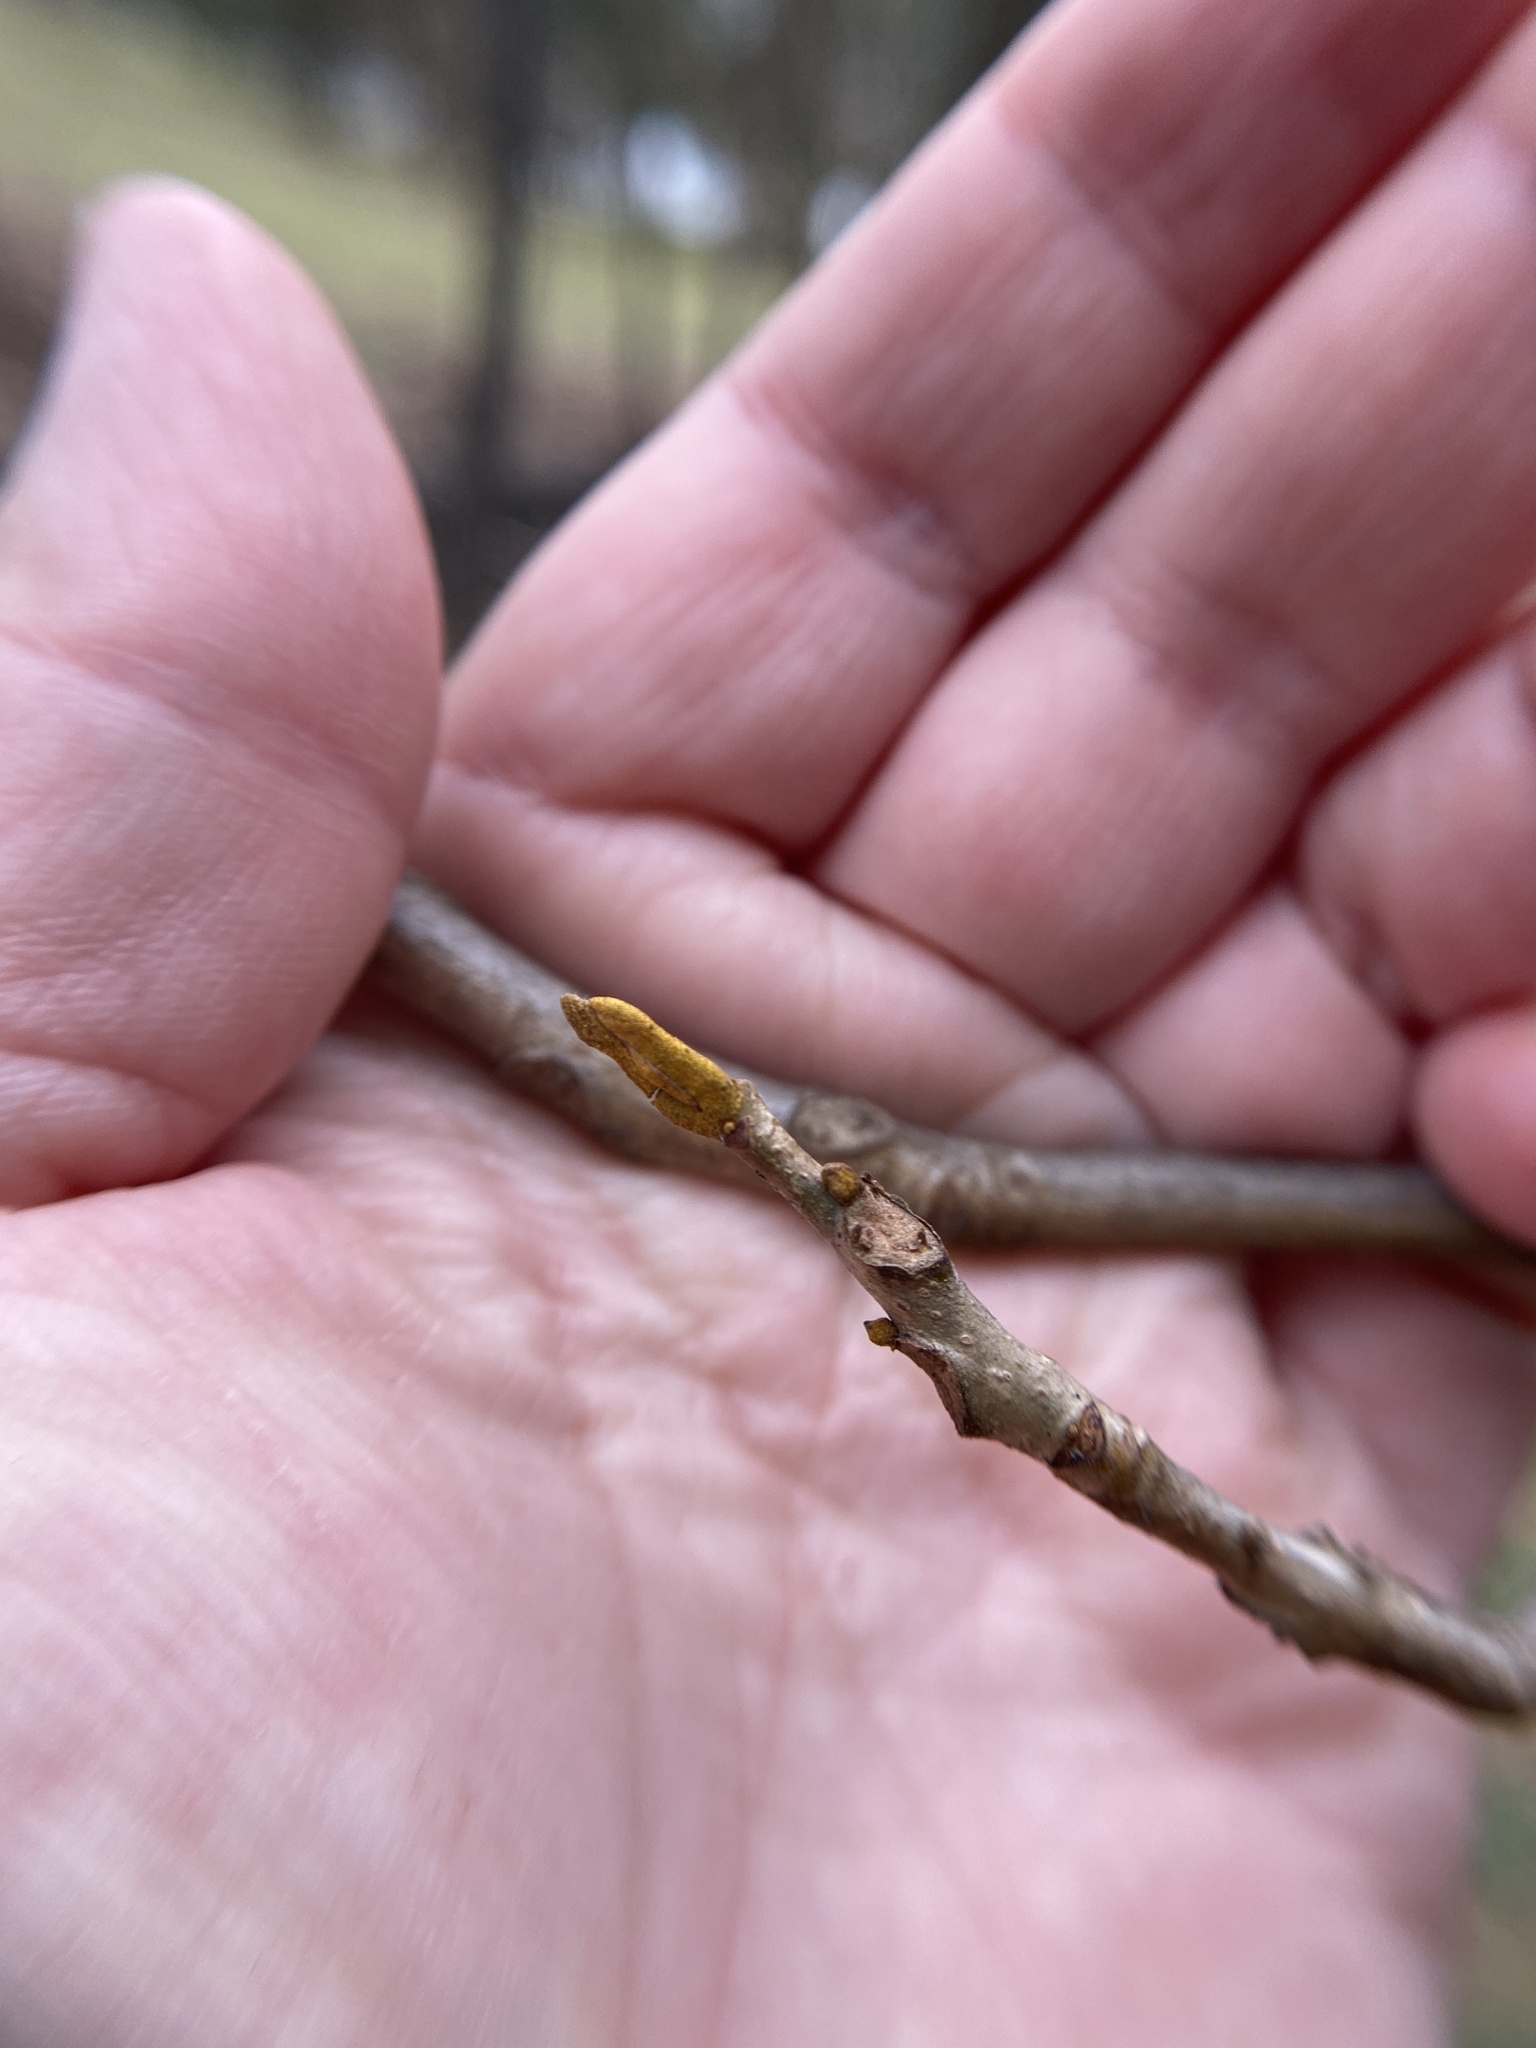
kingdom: Plantae
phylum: Tracheophyta
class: Magnoliopsida
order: Fagales
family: Juglandaceae
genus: Carya
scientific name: Carya cordiformis
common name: Bitternut hickory
